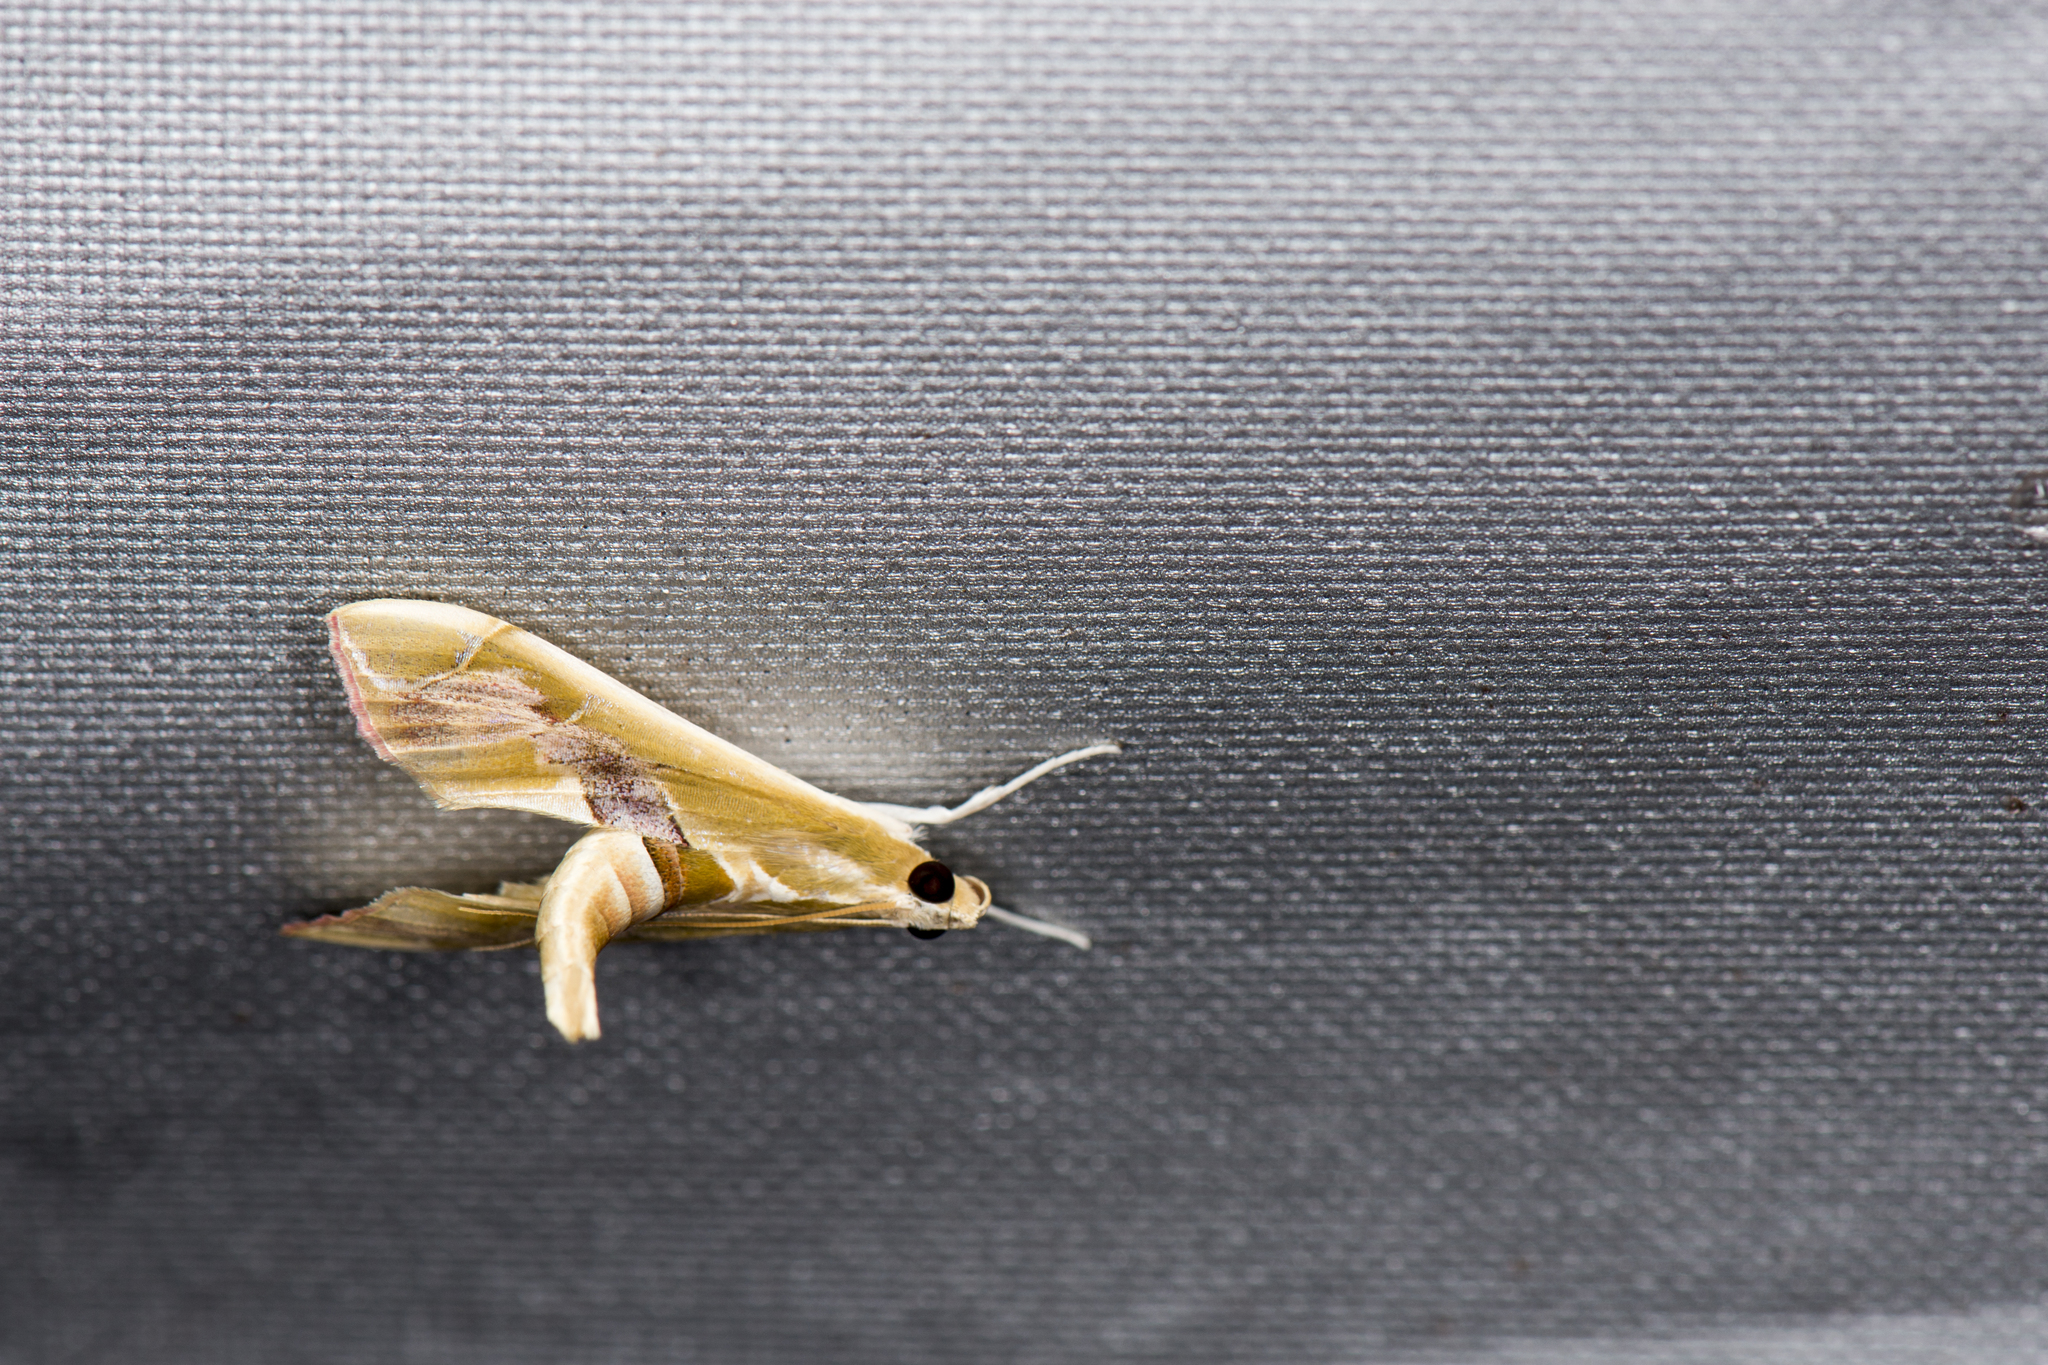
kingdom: Animalia
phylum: Arthropoda
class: Insecta
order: Lepidoptera
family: Crambidae
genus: Agathodes
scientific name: Agathodes ostentalis
